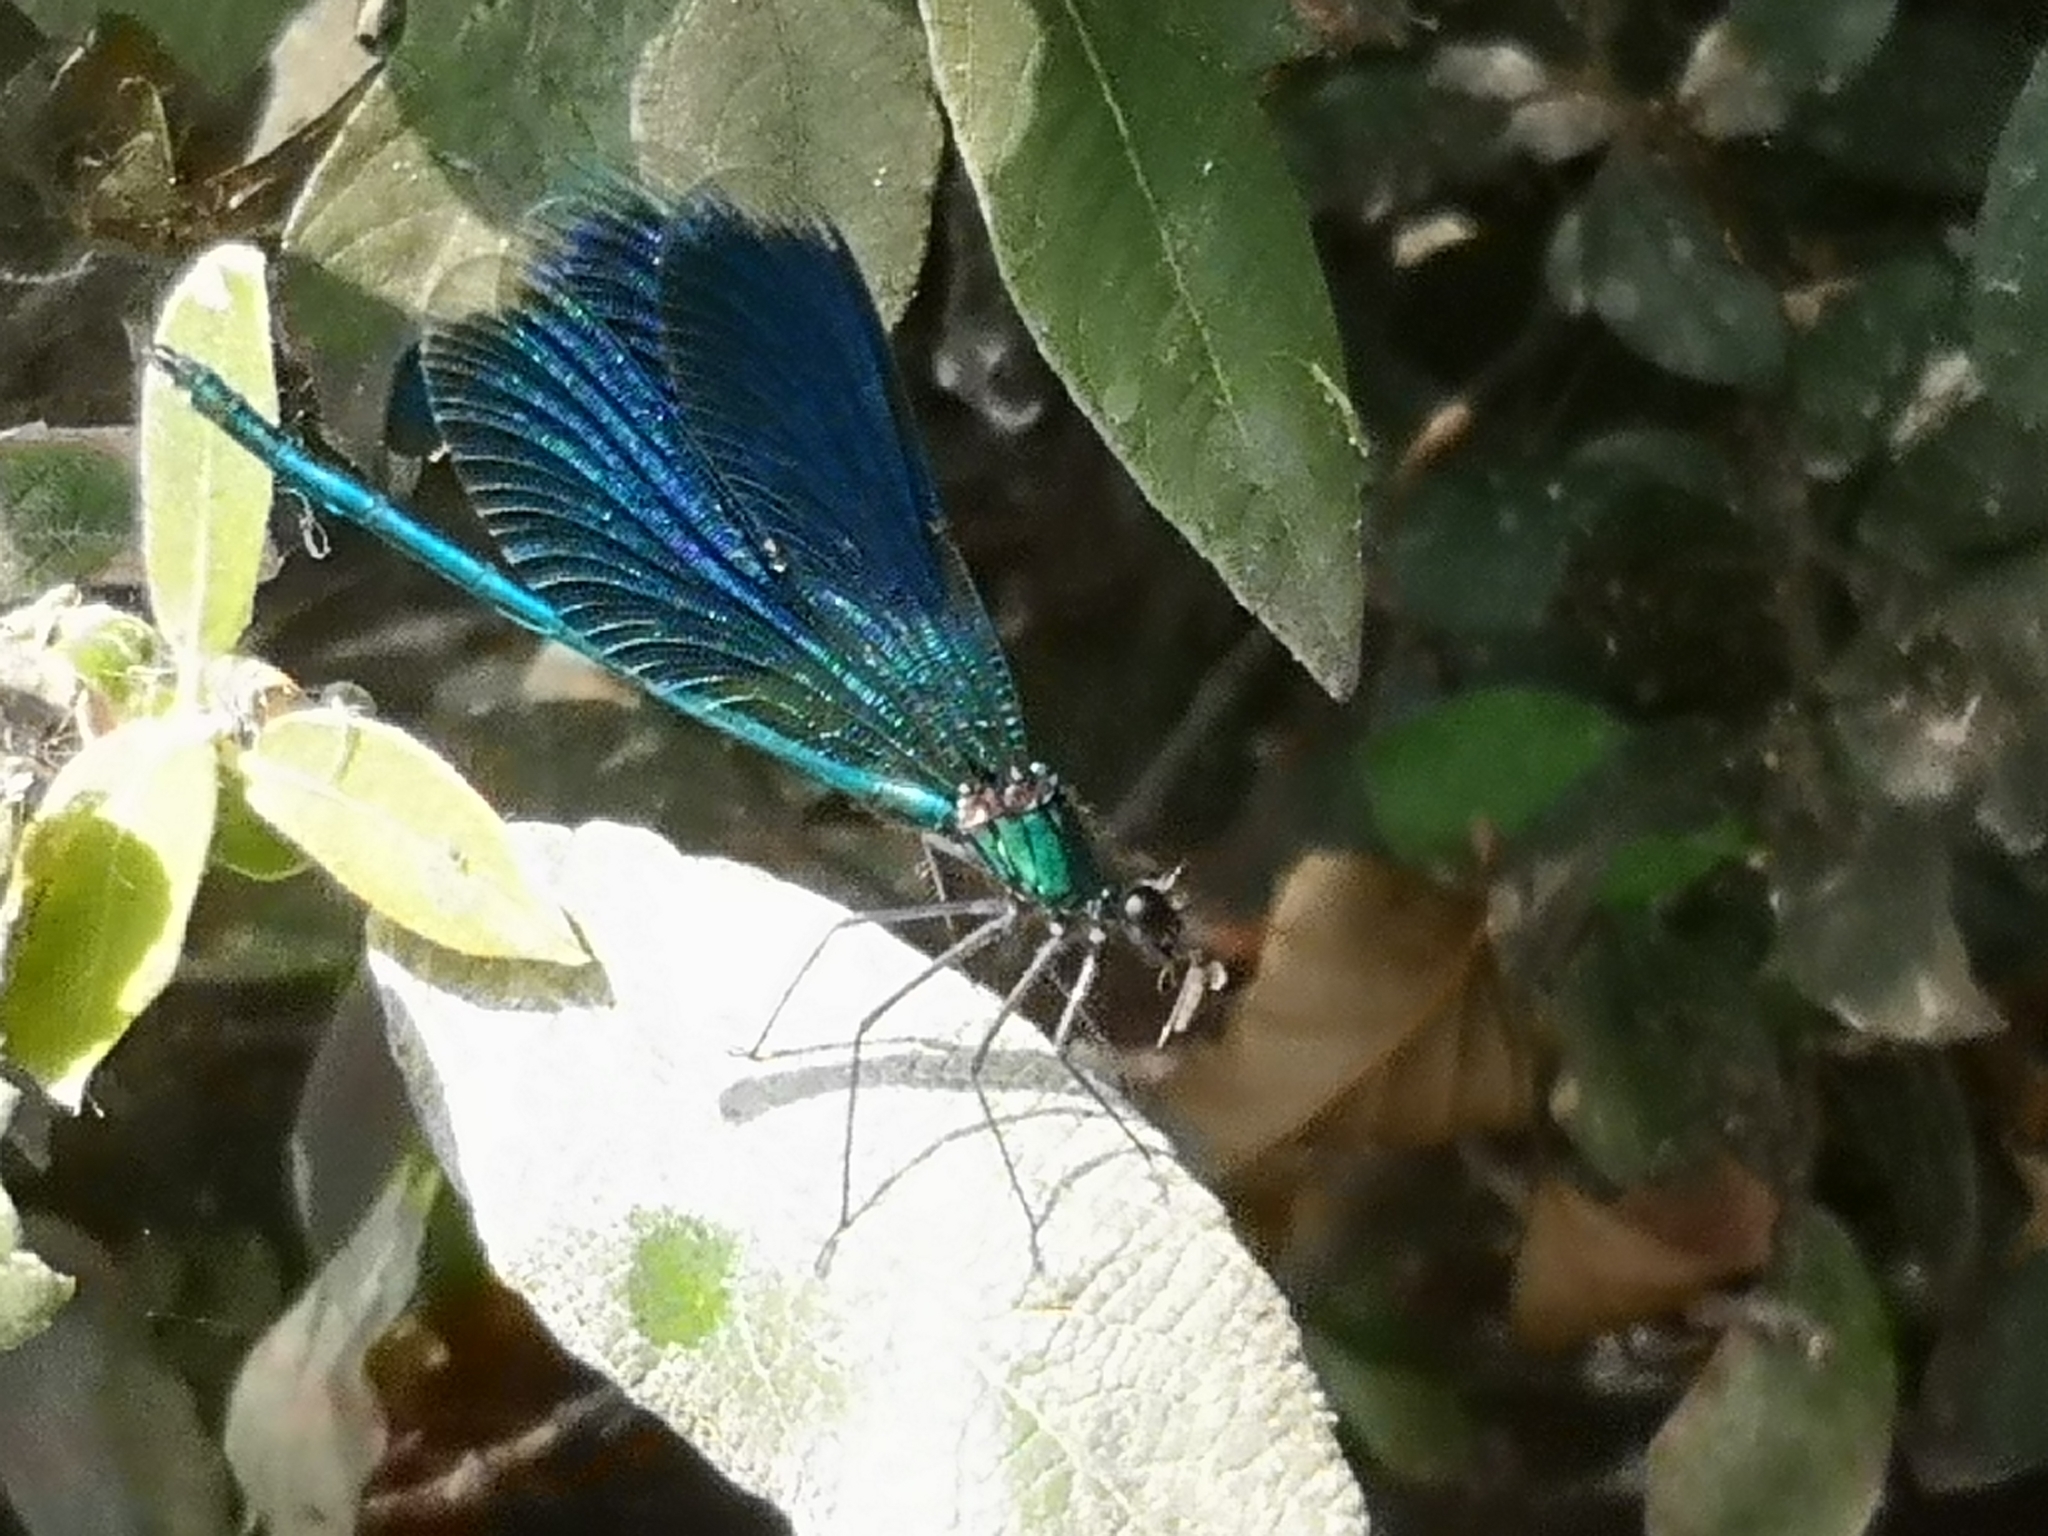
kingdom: Animalia
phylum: Arthropoda
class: Insecta
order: Odonata
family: Calopterygidae
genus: Calopteryx
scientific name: Calopteryx splendens
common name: Banded demoiselle
